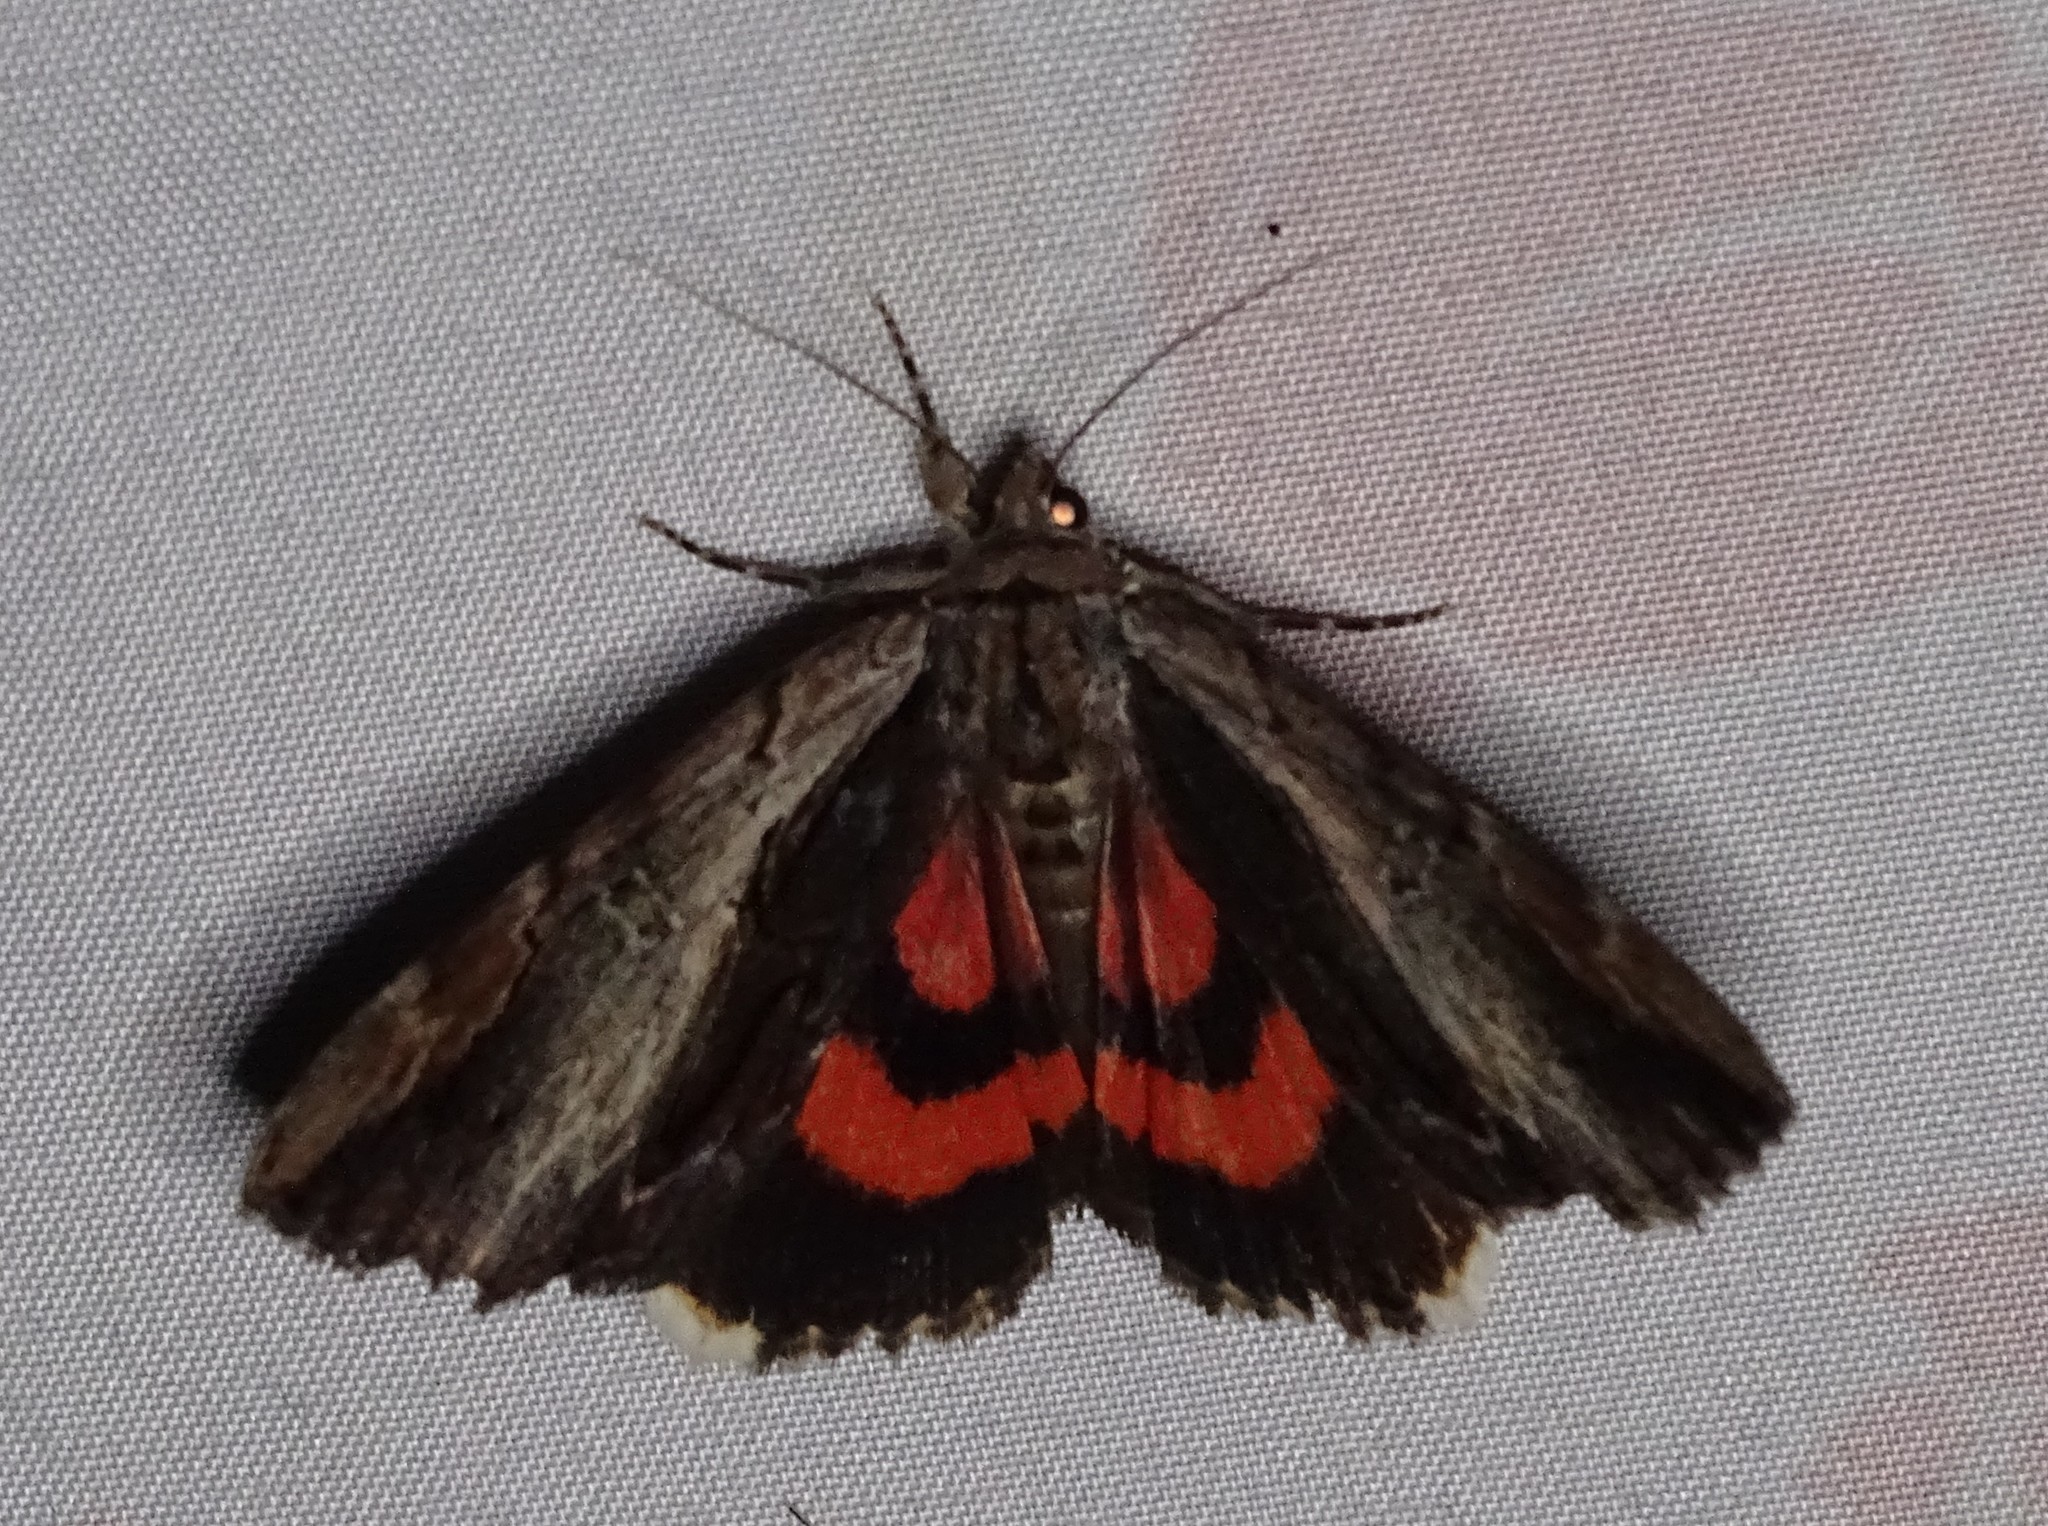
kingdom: Animalia
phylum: Arthropoda
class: Insecta
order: Lepidoptera
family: Erebidae
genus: Catocala
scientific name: Catocala ultronia
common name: Ultronia underwing
